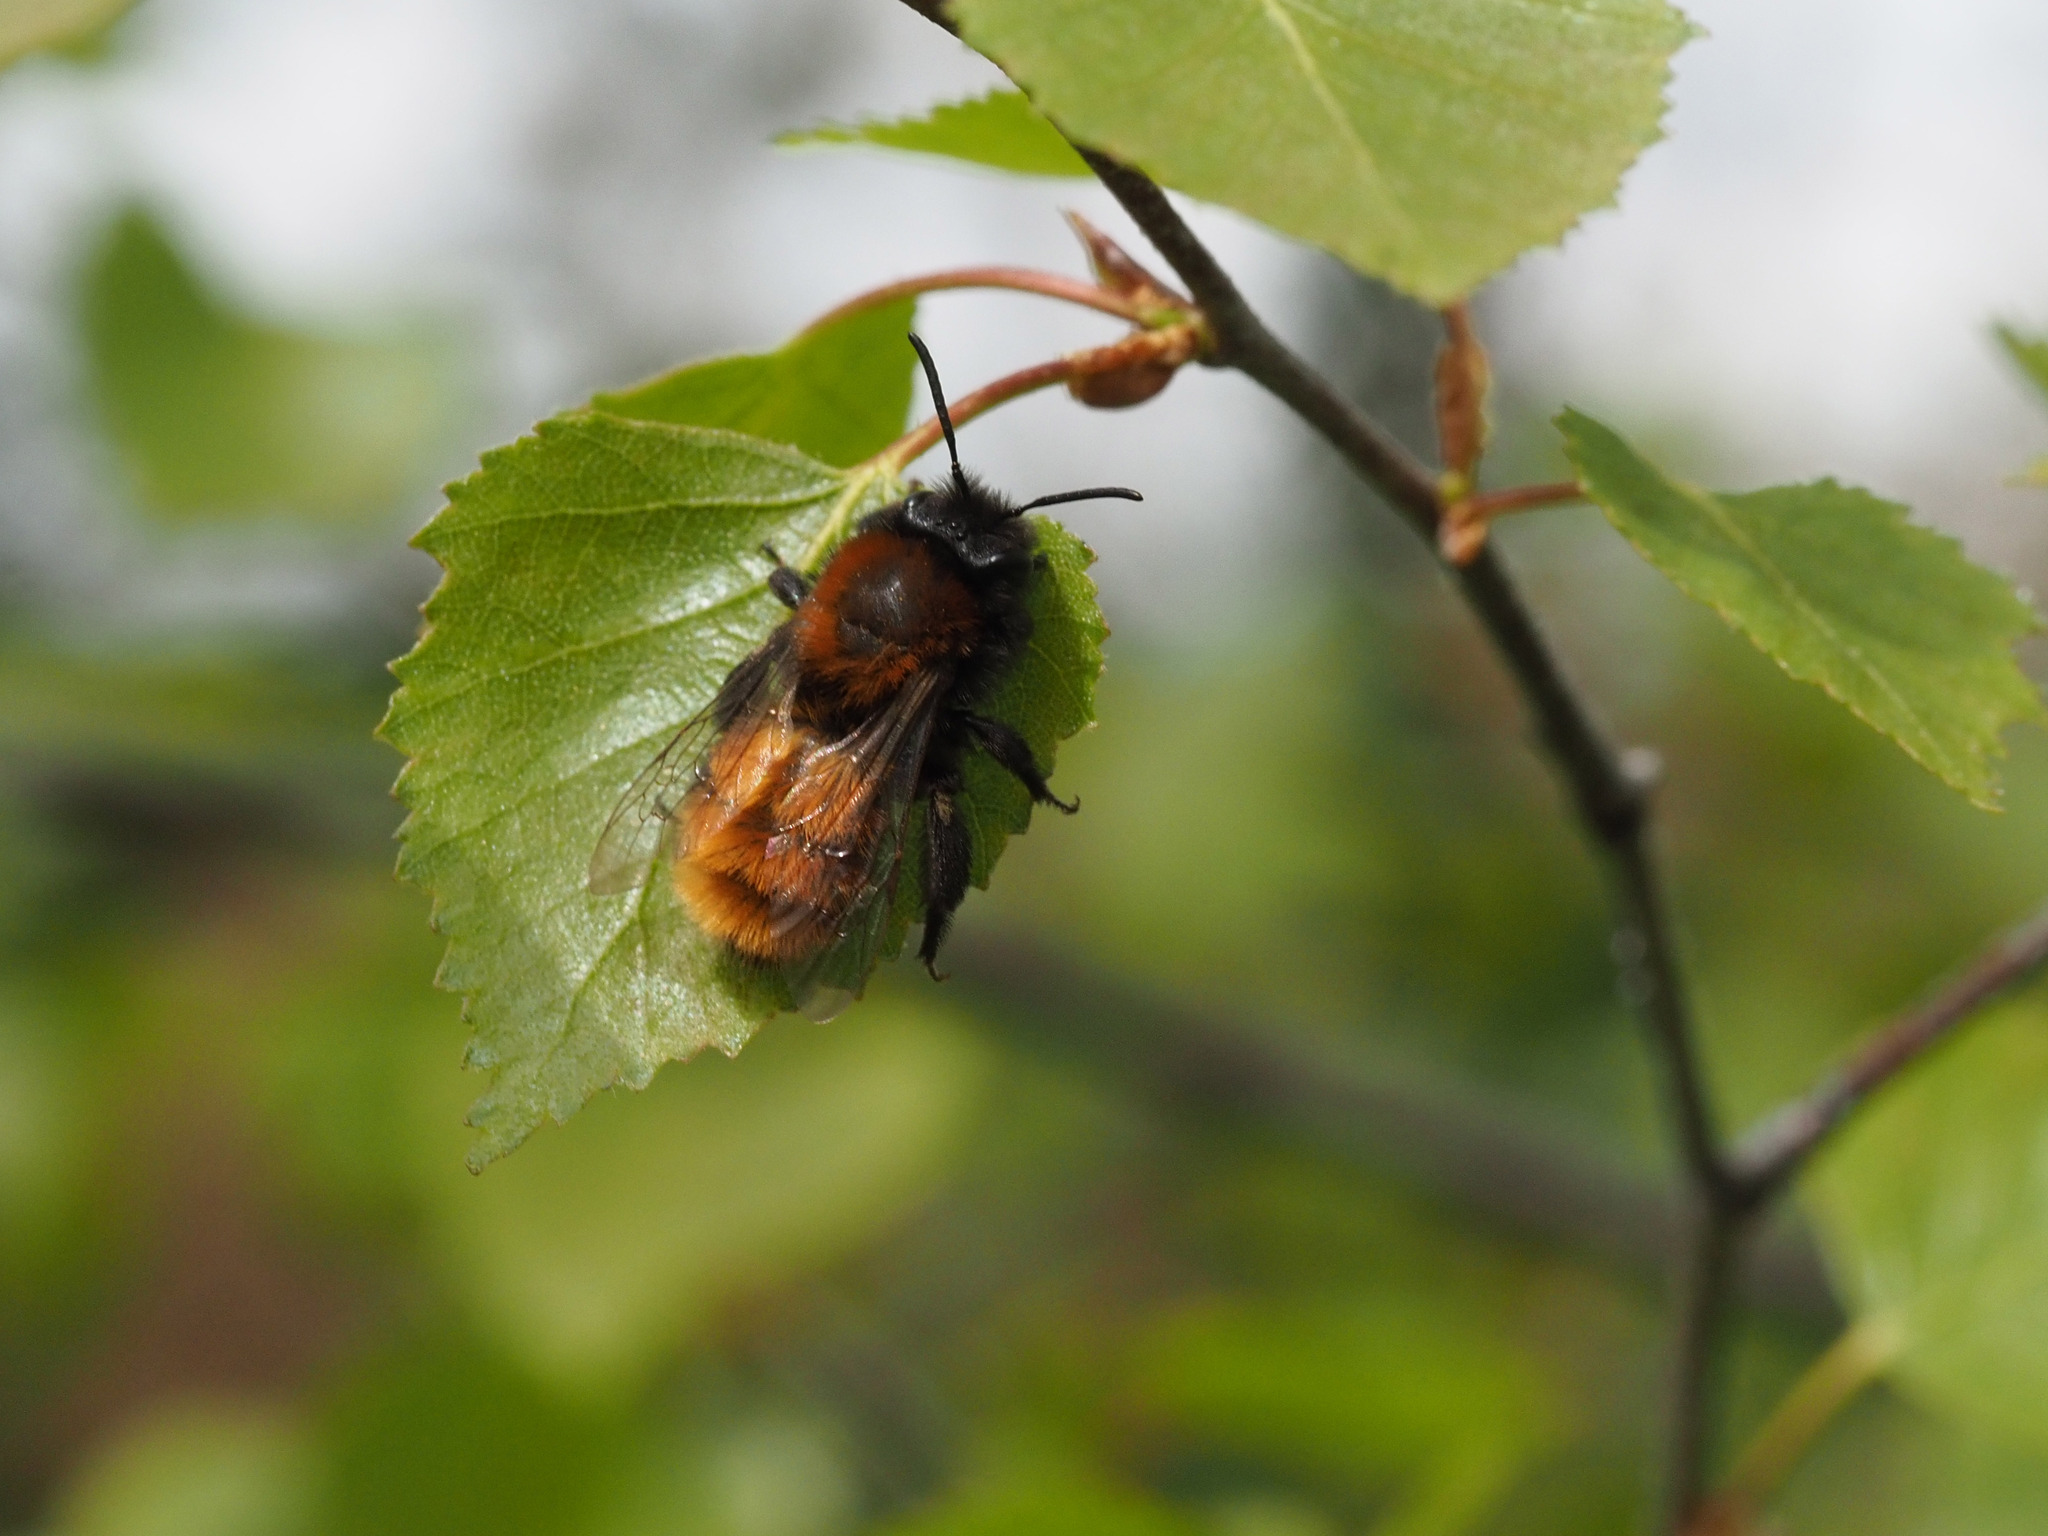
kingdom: Animalia
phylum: Arthropoda
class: Insecta
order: Hymenoptera
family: Andrenidae
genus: Andrena
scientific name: Andrena fulva
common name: Tawny mining bee
